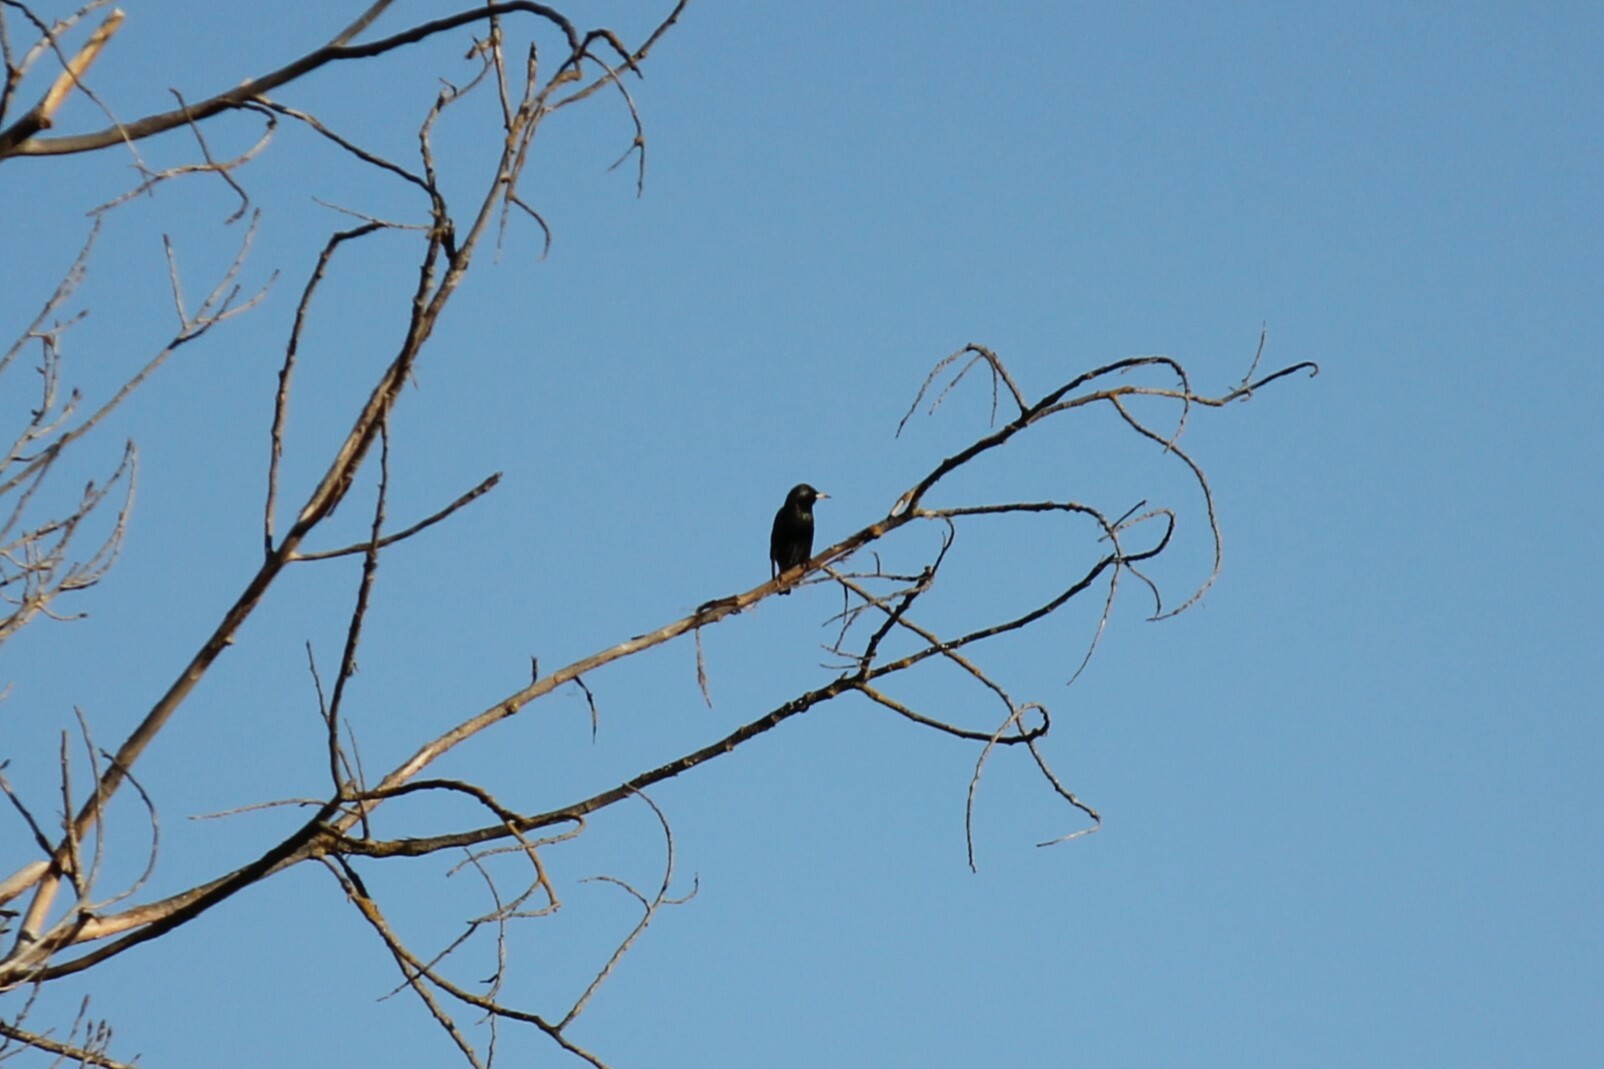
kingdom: Animalia
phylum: Chordata
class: Aves
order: Passeriformes
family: Sturnidae
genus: Sturnus
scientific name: Sturnus vulgaris
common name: Common starling
